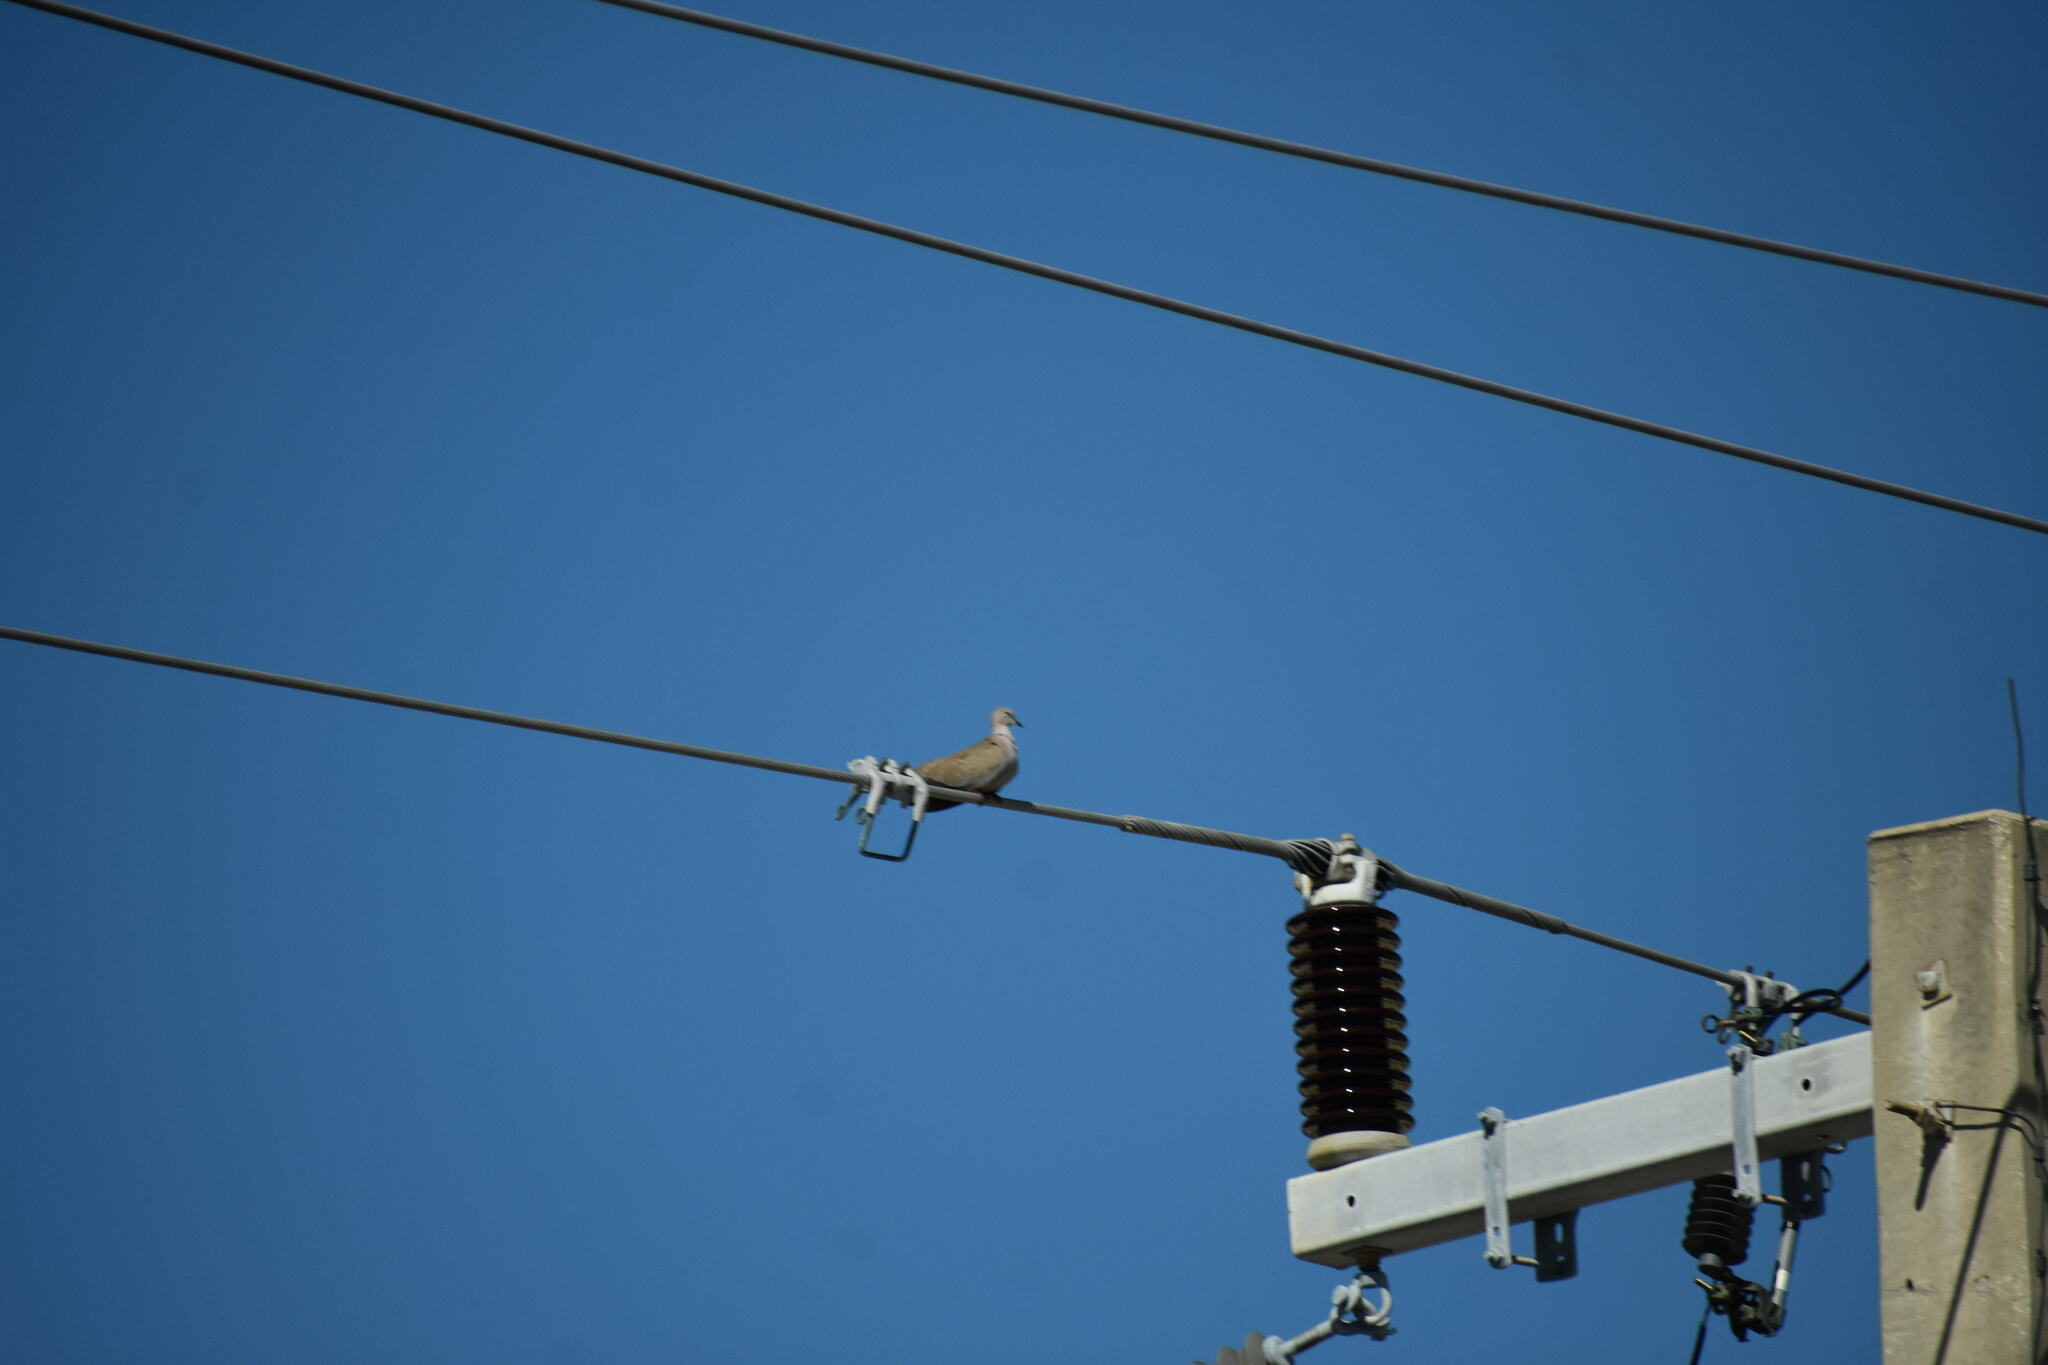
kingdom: Animalia
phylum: Chordata
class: Aves
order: Columbiformes
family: Columbidae
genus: Streptopelia
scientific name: Streptopelia decaocto
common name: Eurasian collared dove
